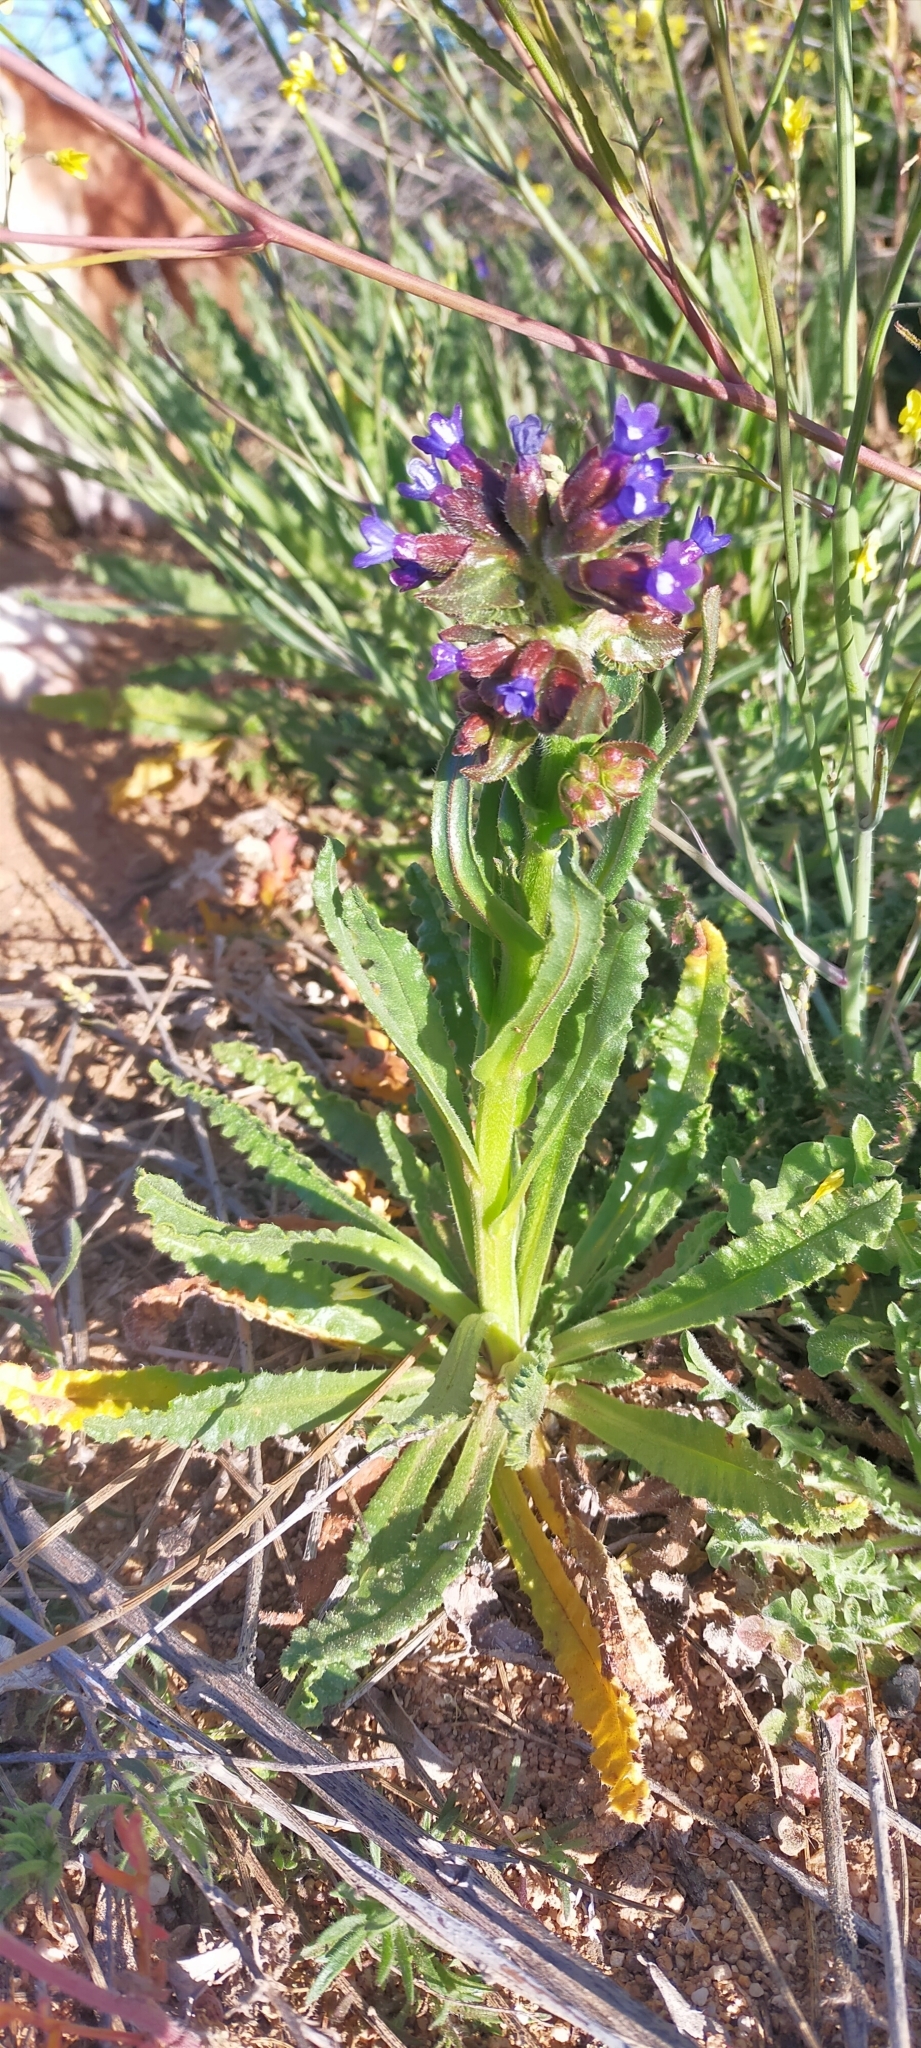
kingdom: Plantae
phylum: Tracheophyta
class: Magnoliopsida
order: Boraginales
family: Boraginaceae
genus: Anchusa
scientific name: Anchusa undulata
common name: Undulate alkanet
